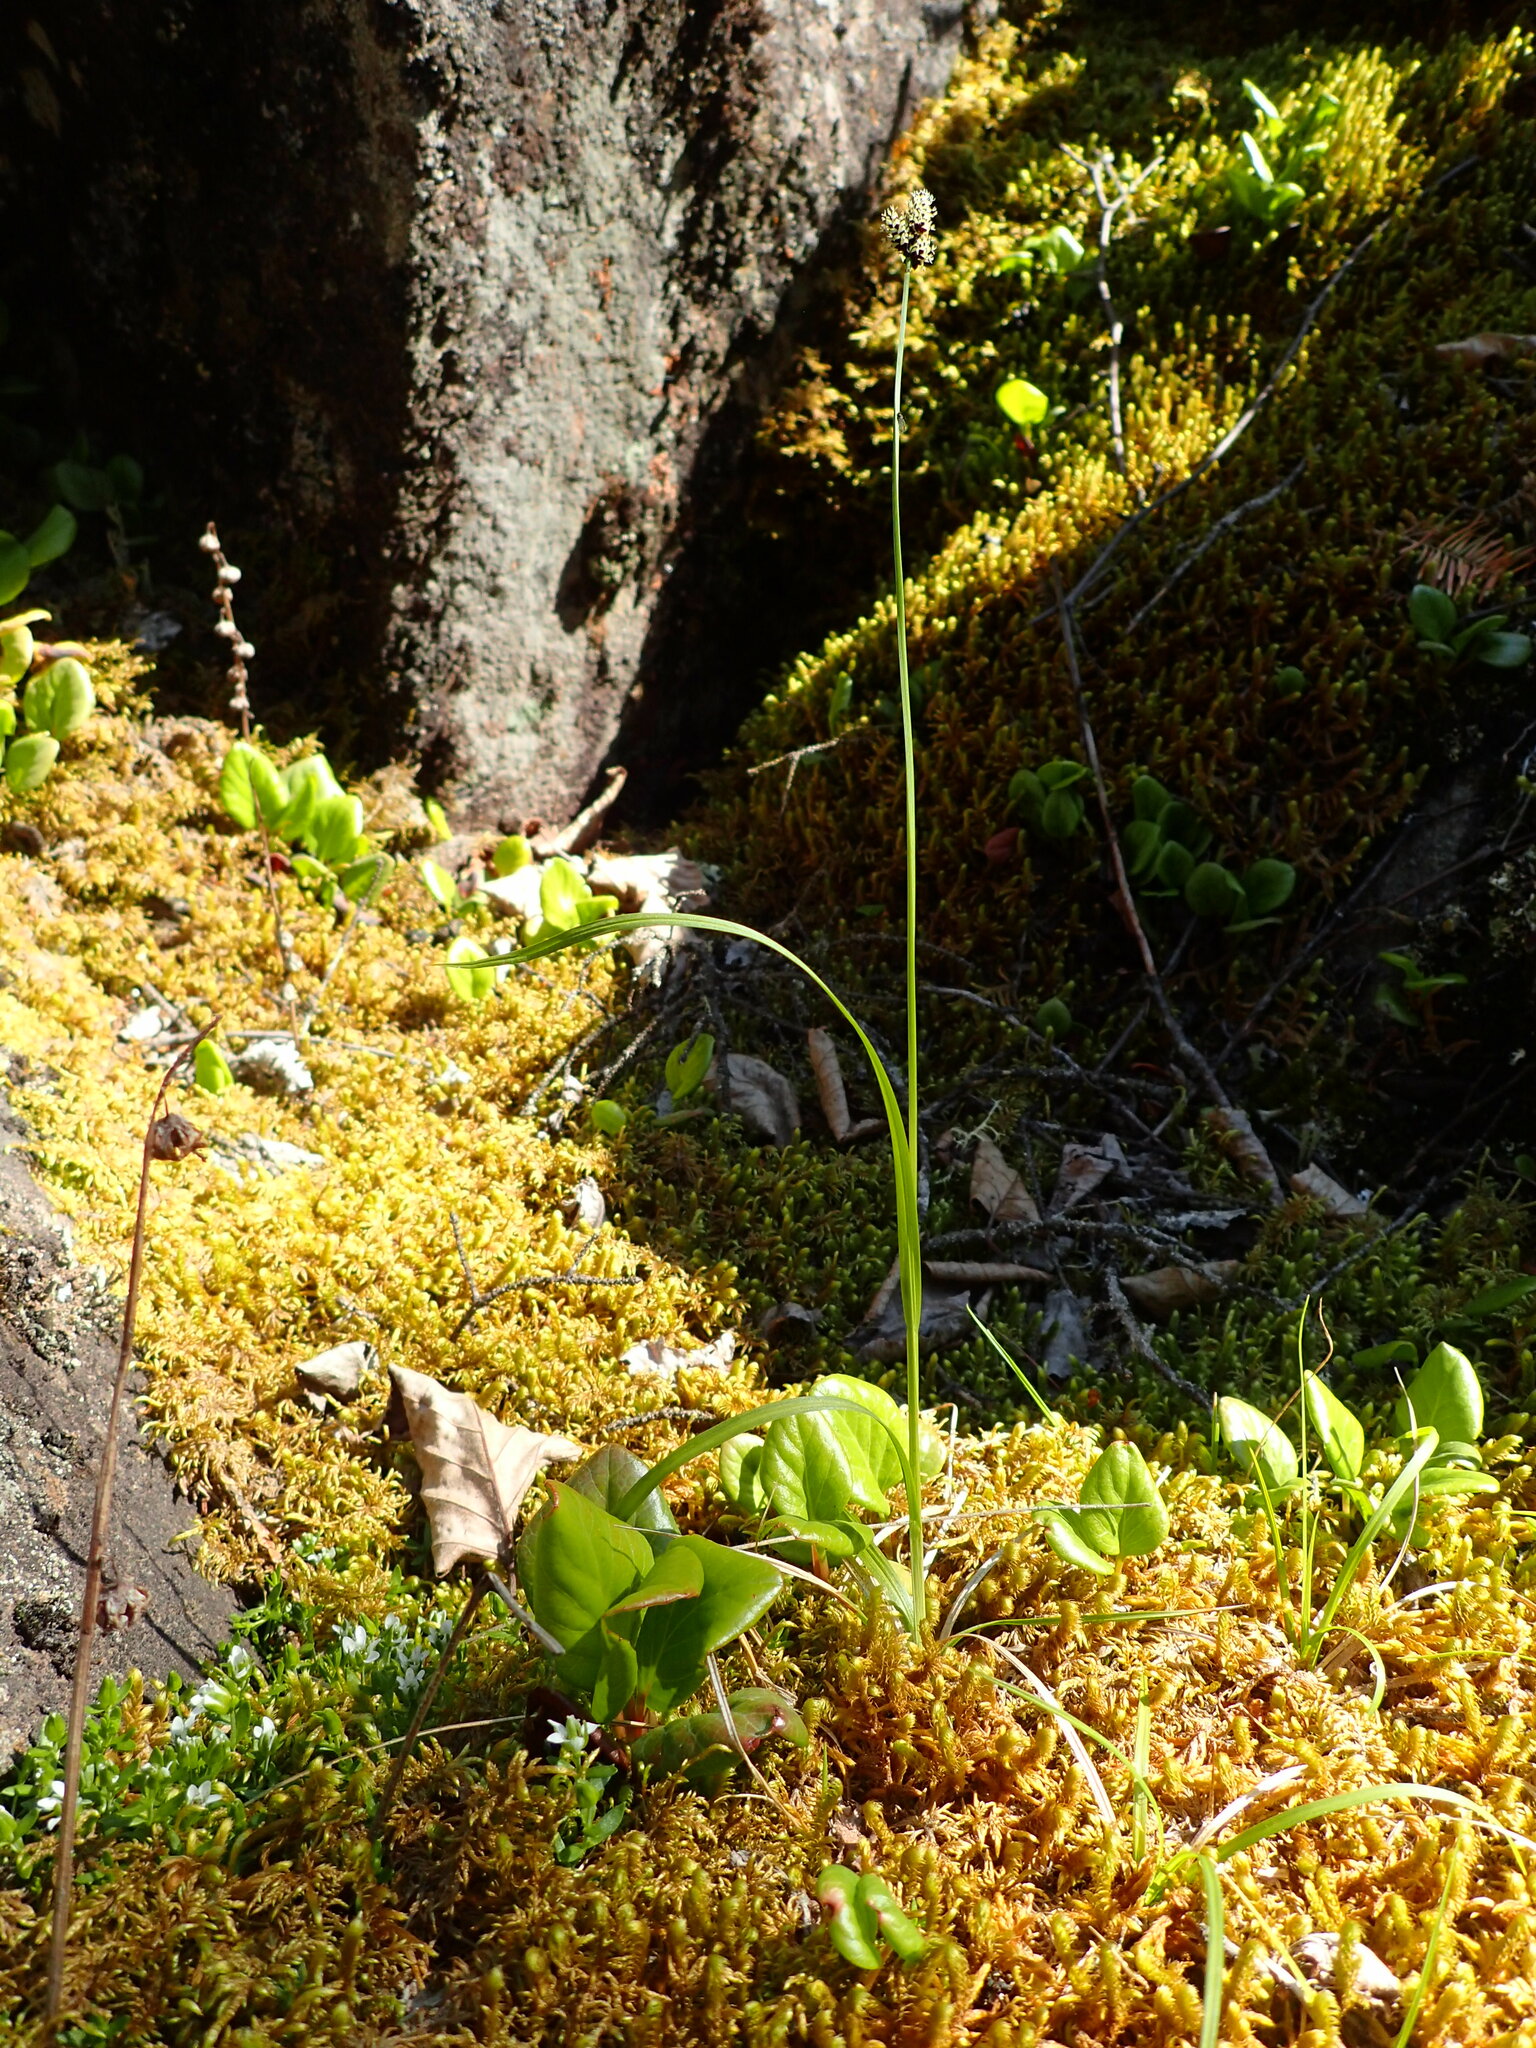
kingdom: Plantae
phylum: Tracheophyta
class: Liliopsida
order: Poales
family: Cyperaceae
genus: Carex
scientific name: Carex media
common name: Alpine sedge
